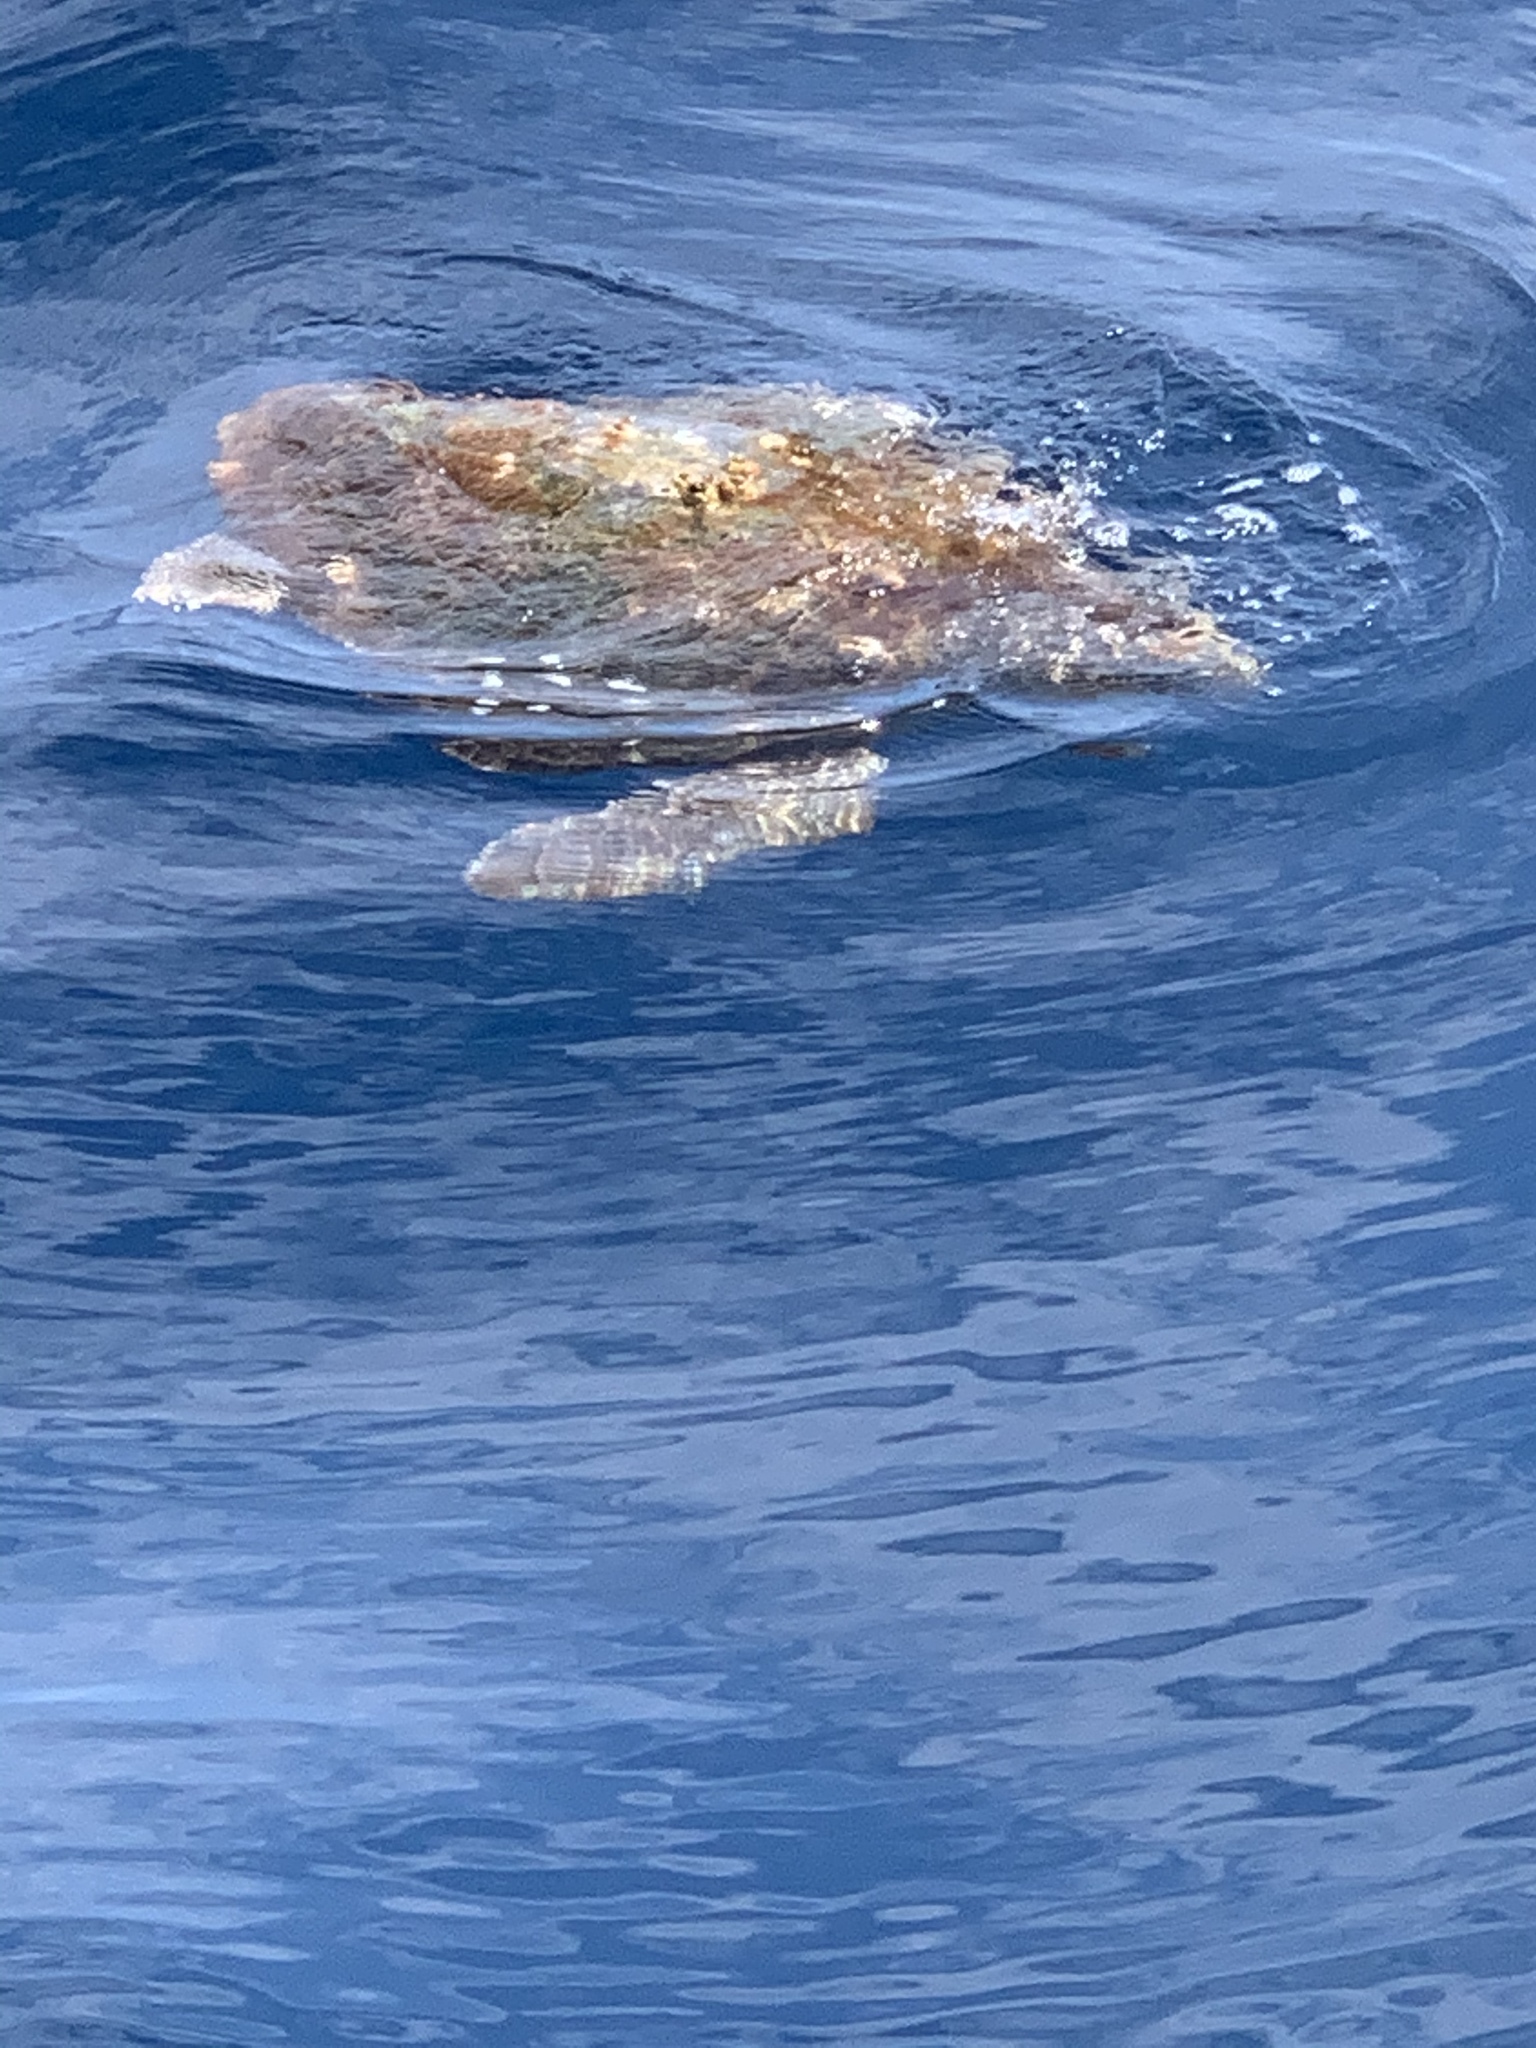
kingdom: Animalia
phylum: Chordata
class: Testudines
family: Cheloniidae
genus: Caretta
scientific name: Caretta caretta
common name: Loggerhead sea turtle
